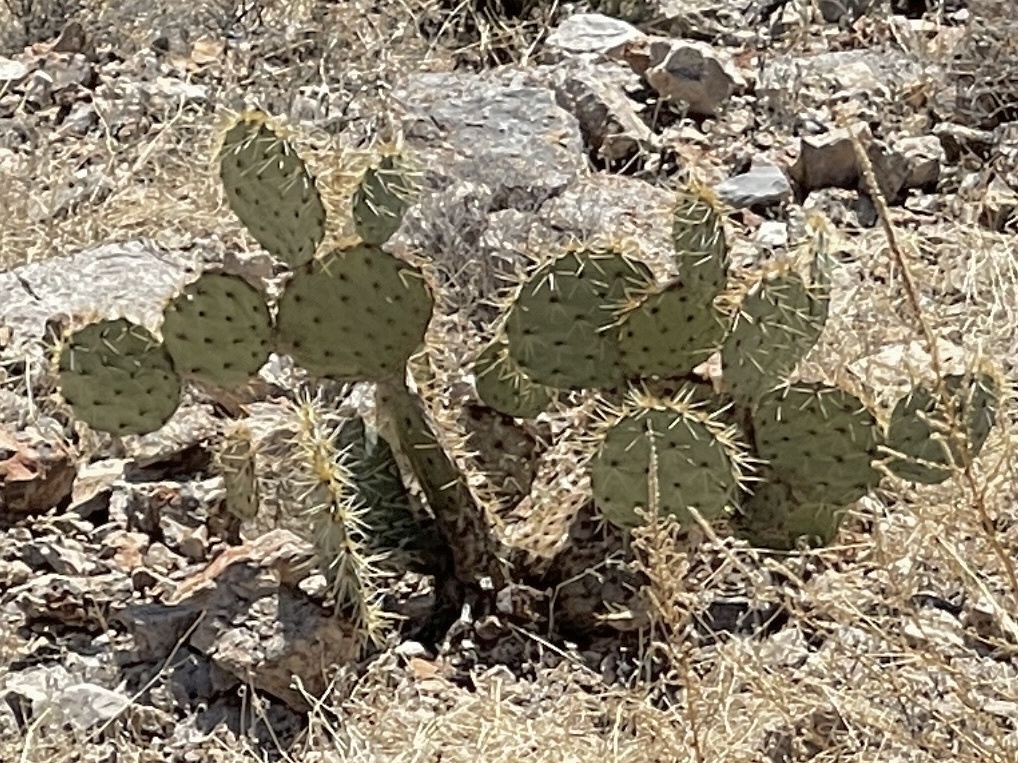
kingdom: Plantae
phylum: Tracheophyta
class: Magnoliopsida
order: Caryophyllales
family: Cactaceae
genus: Opuntia
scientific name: Opuntia engelmannii
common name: Cactus-apple
